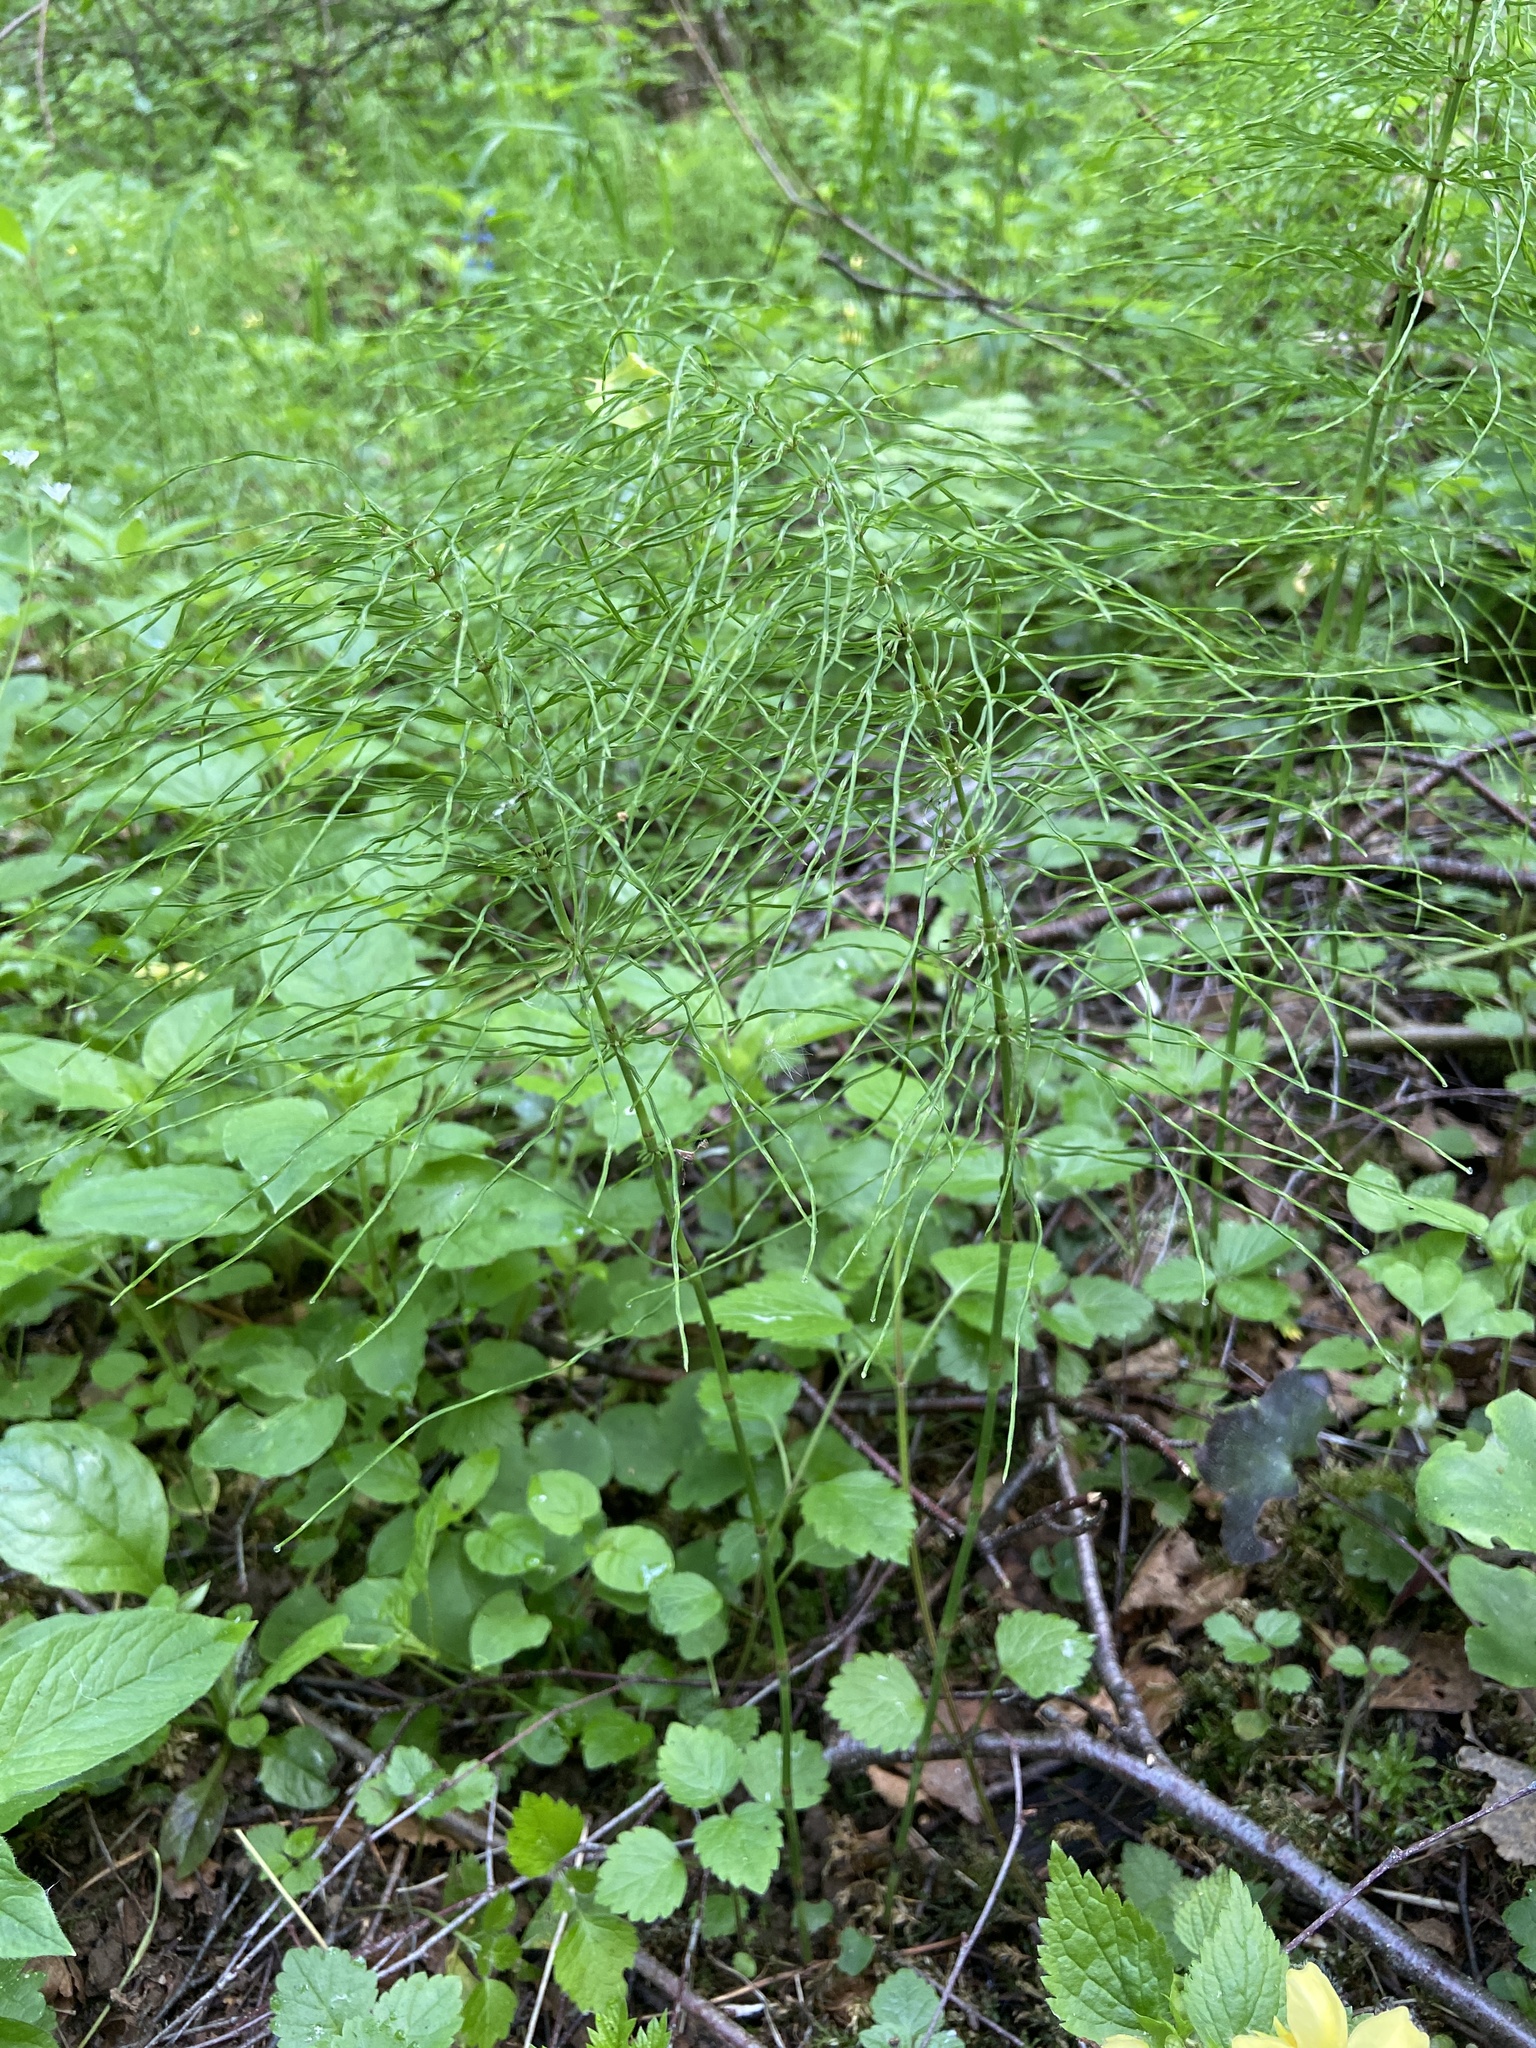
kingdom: Plantae
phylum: Tracheophyta
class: Polypodiopsida
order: Equisetales
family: Equisetaceae
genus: Equisetum
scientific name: Equisetum pratense
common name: Meadow horsetail
